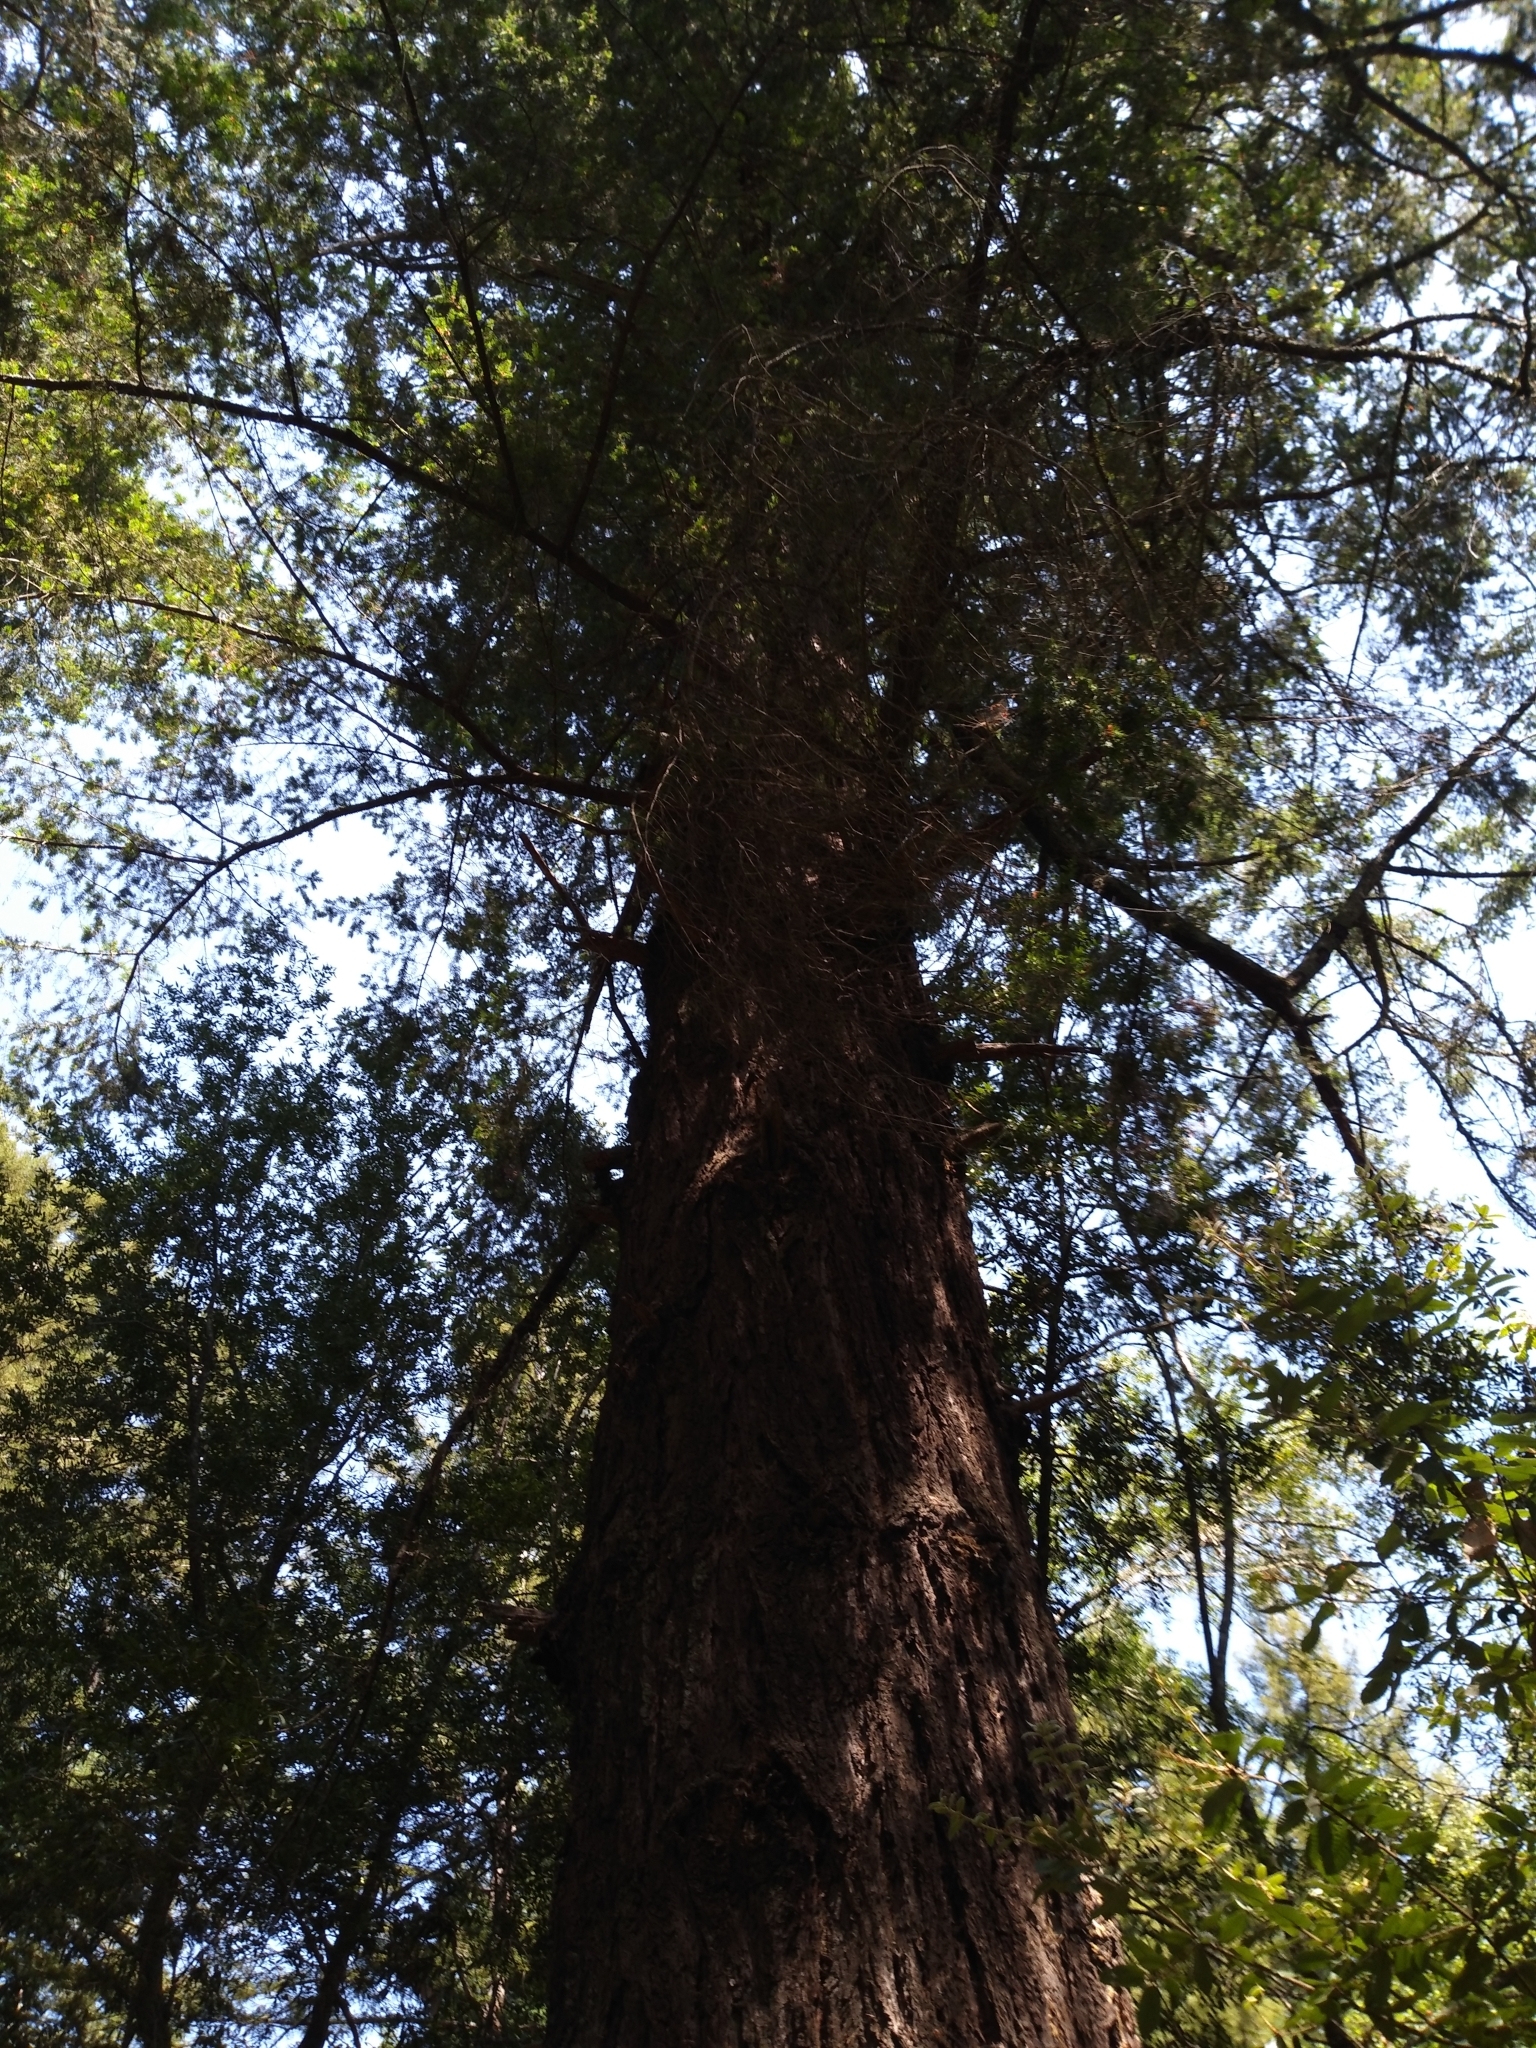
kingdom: Plantae
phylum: Tracheophyta
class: Pinopsida
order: Pinales
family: Pinaceae
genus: Pseudotsuga
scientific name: Pseudotsuga menziesii
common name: Douglas fir
